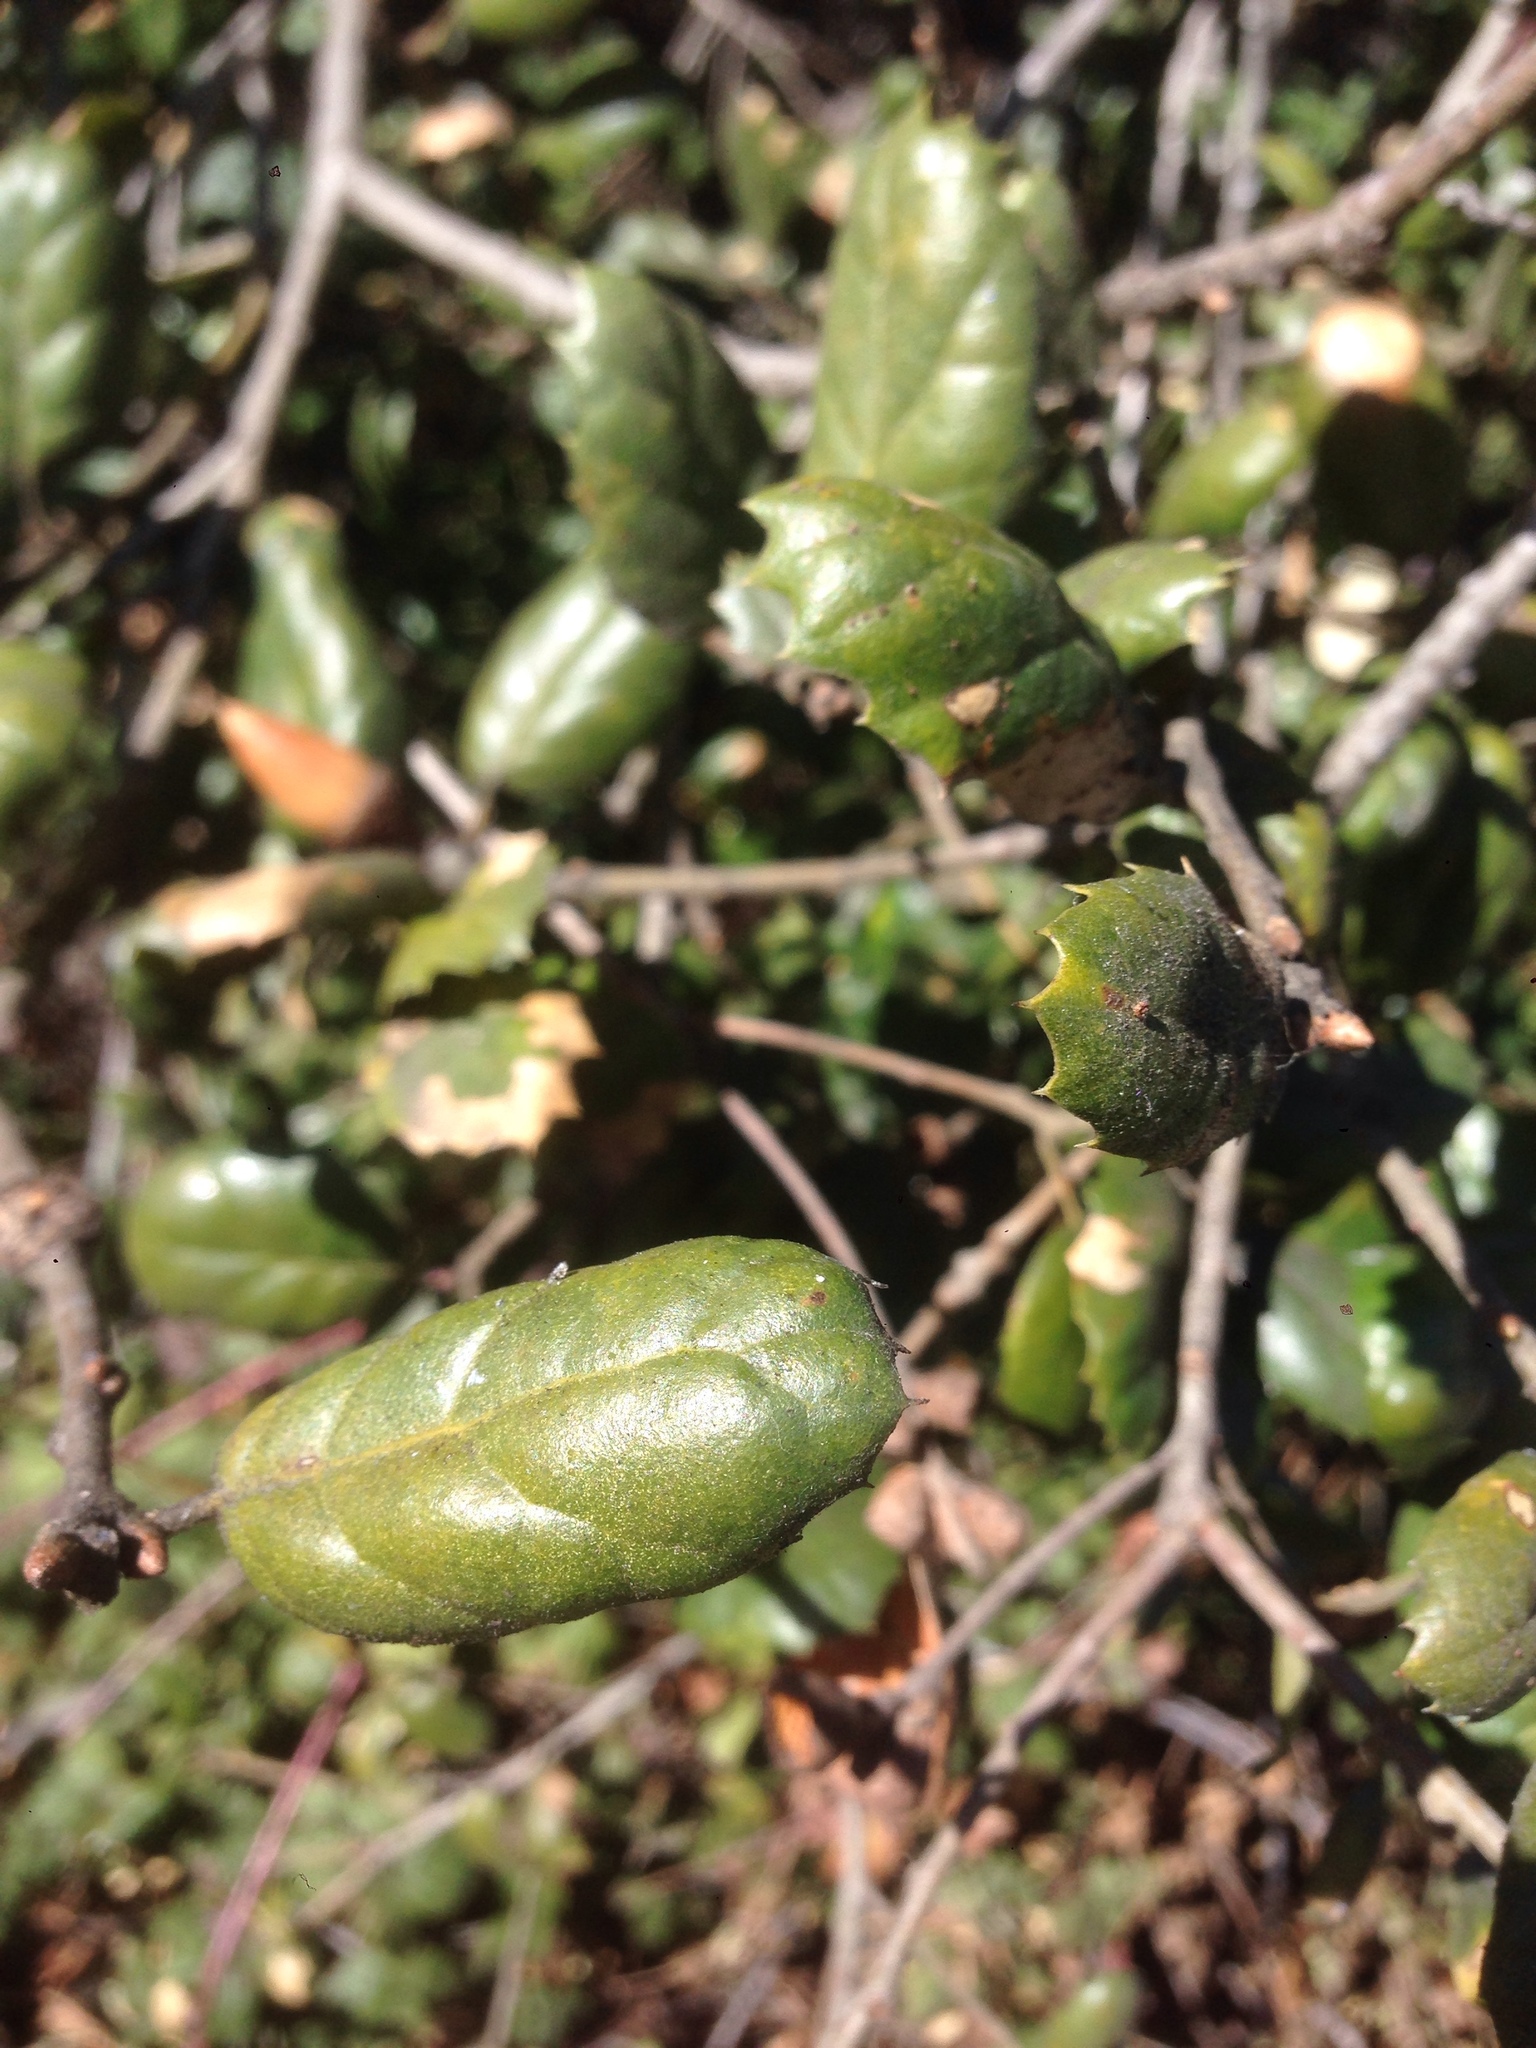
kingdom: Plantae
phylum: Tracheophyta
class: Magnoliopsida
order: Fagales
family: Fagaceae
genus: Quercus
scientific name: Quercus agrifolia
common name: California live oak
